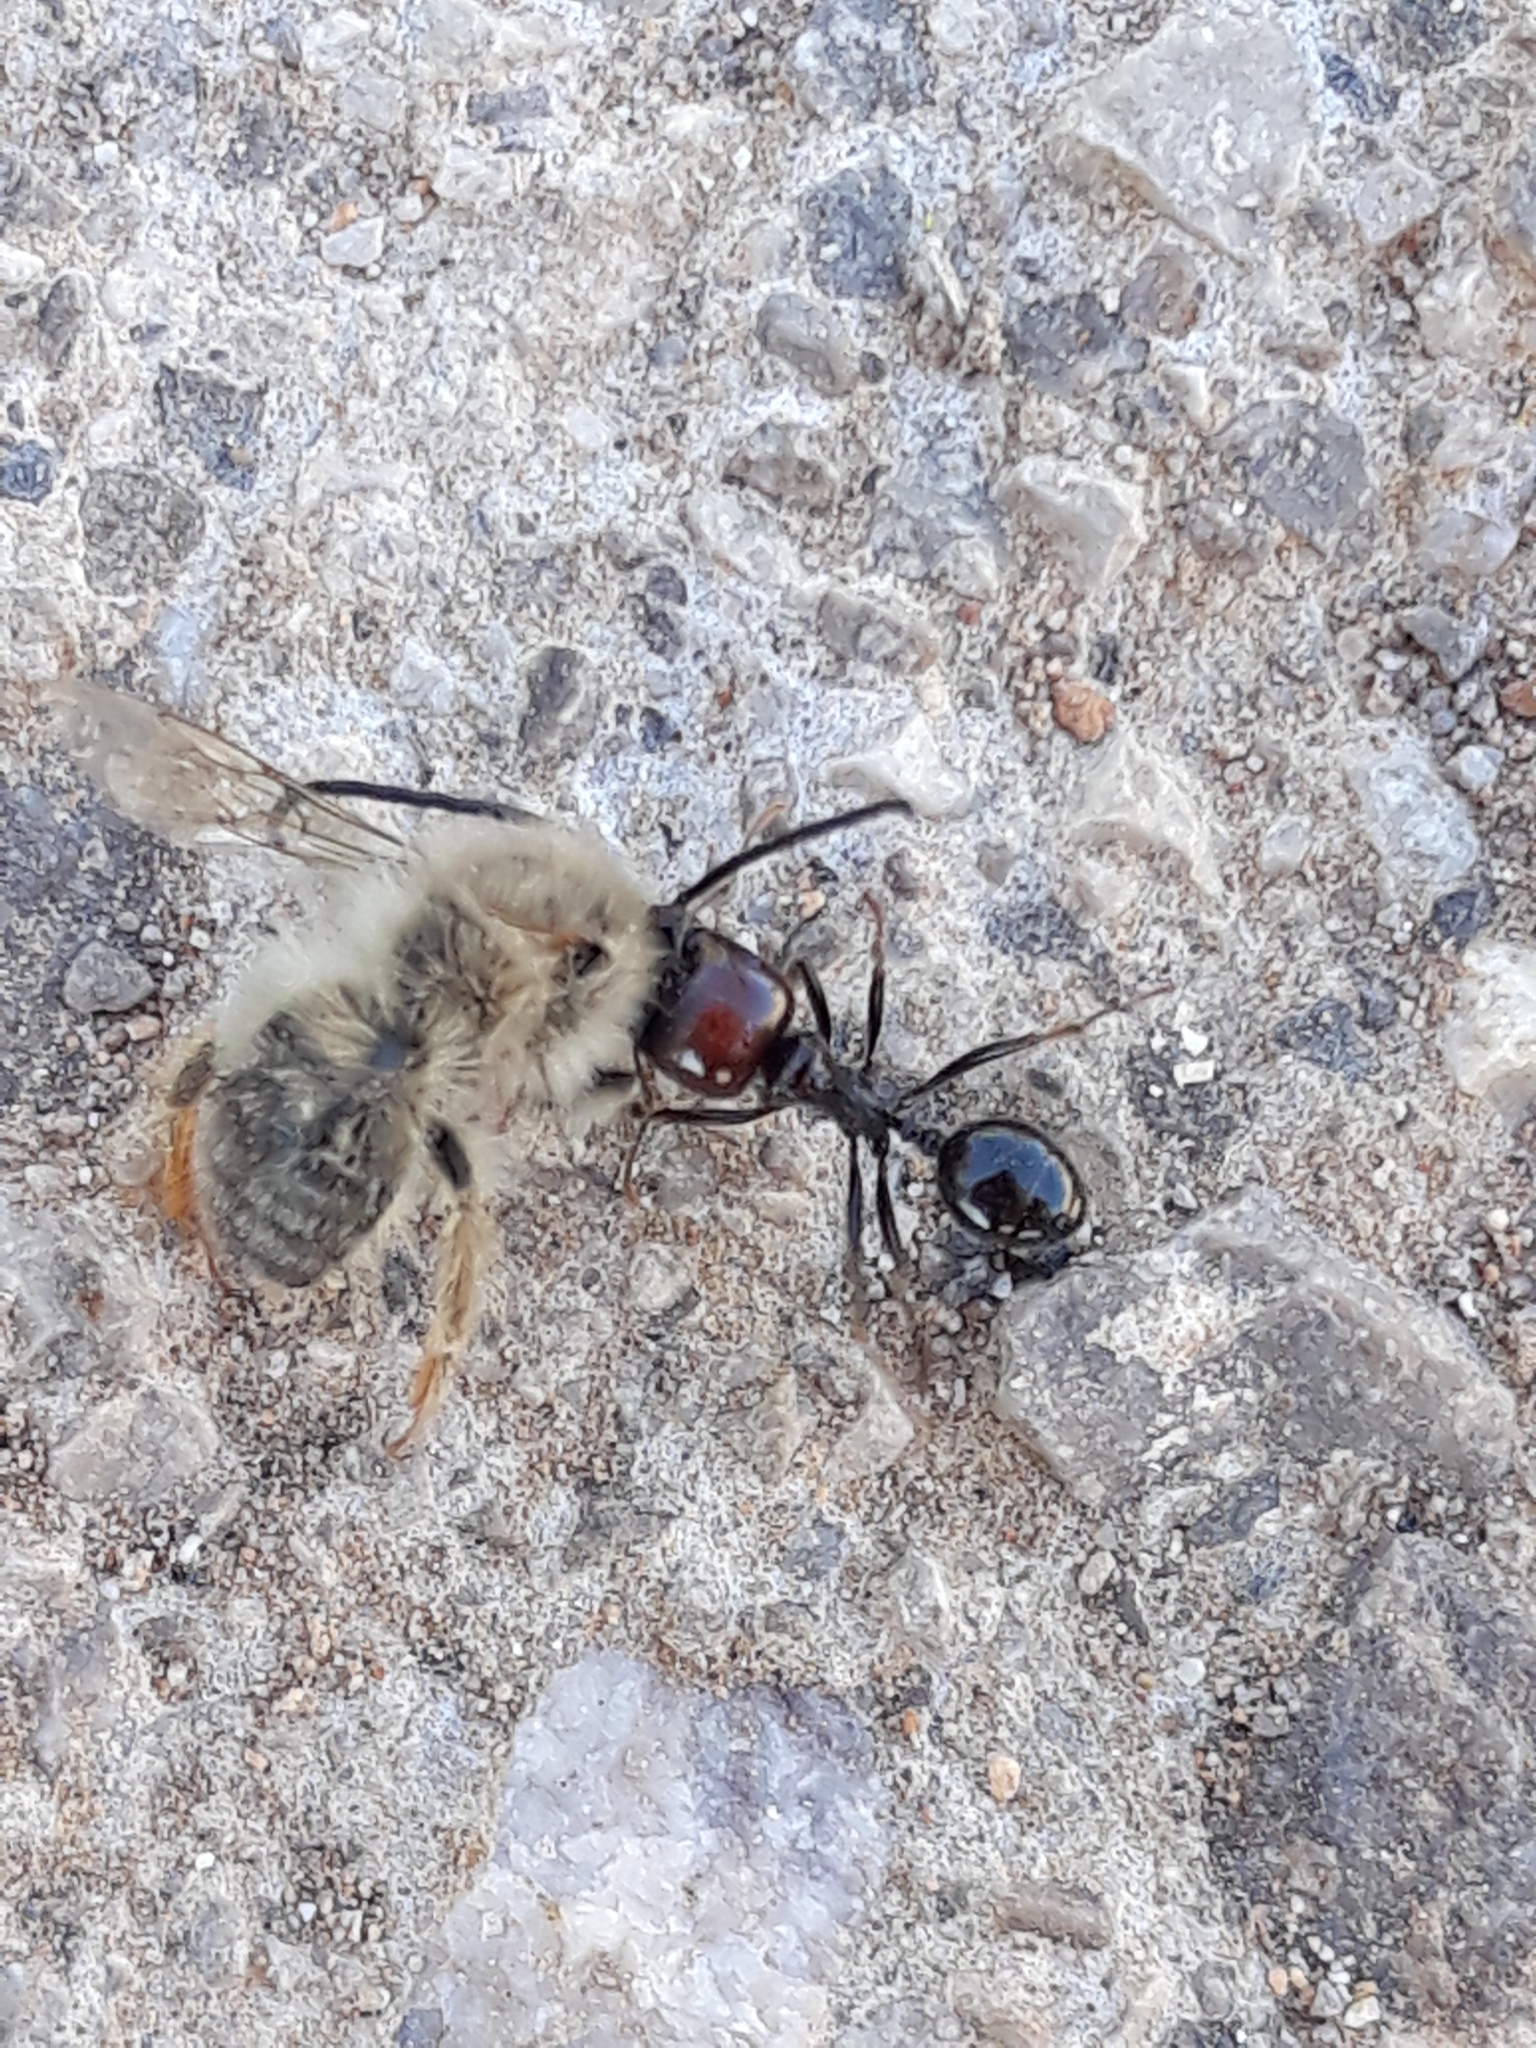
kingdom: Animalia
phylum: Arthropoda
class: Insecta
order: Hymenoptera
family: Formicidae
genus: Messor
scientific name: Messor barbarus
